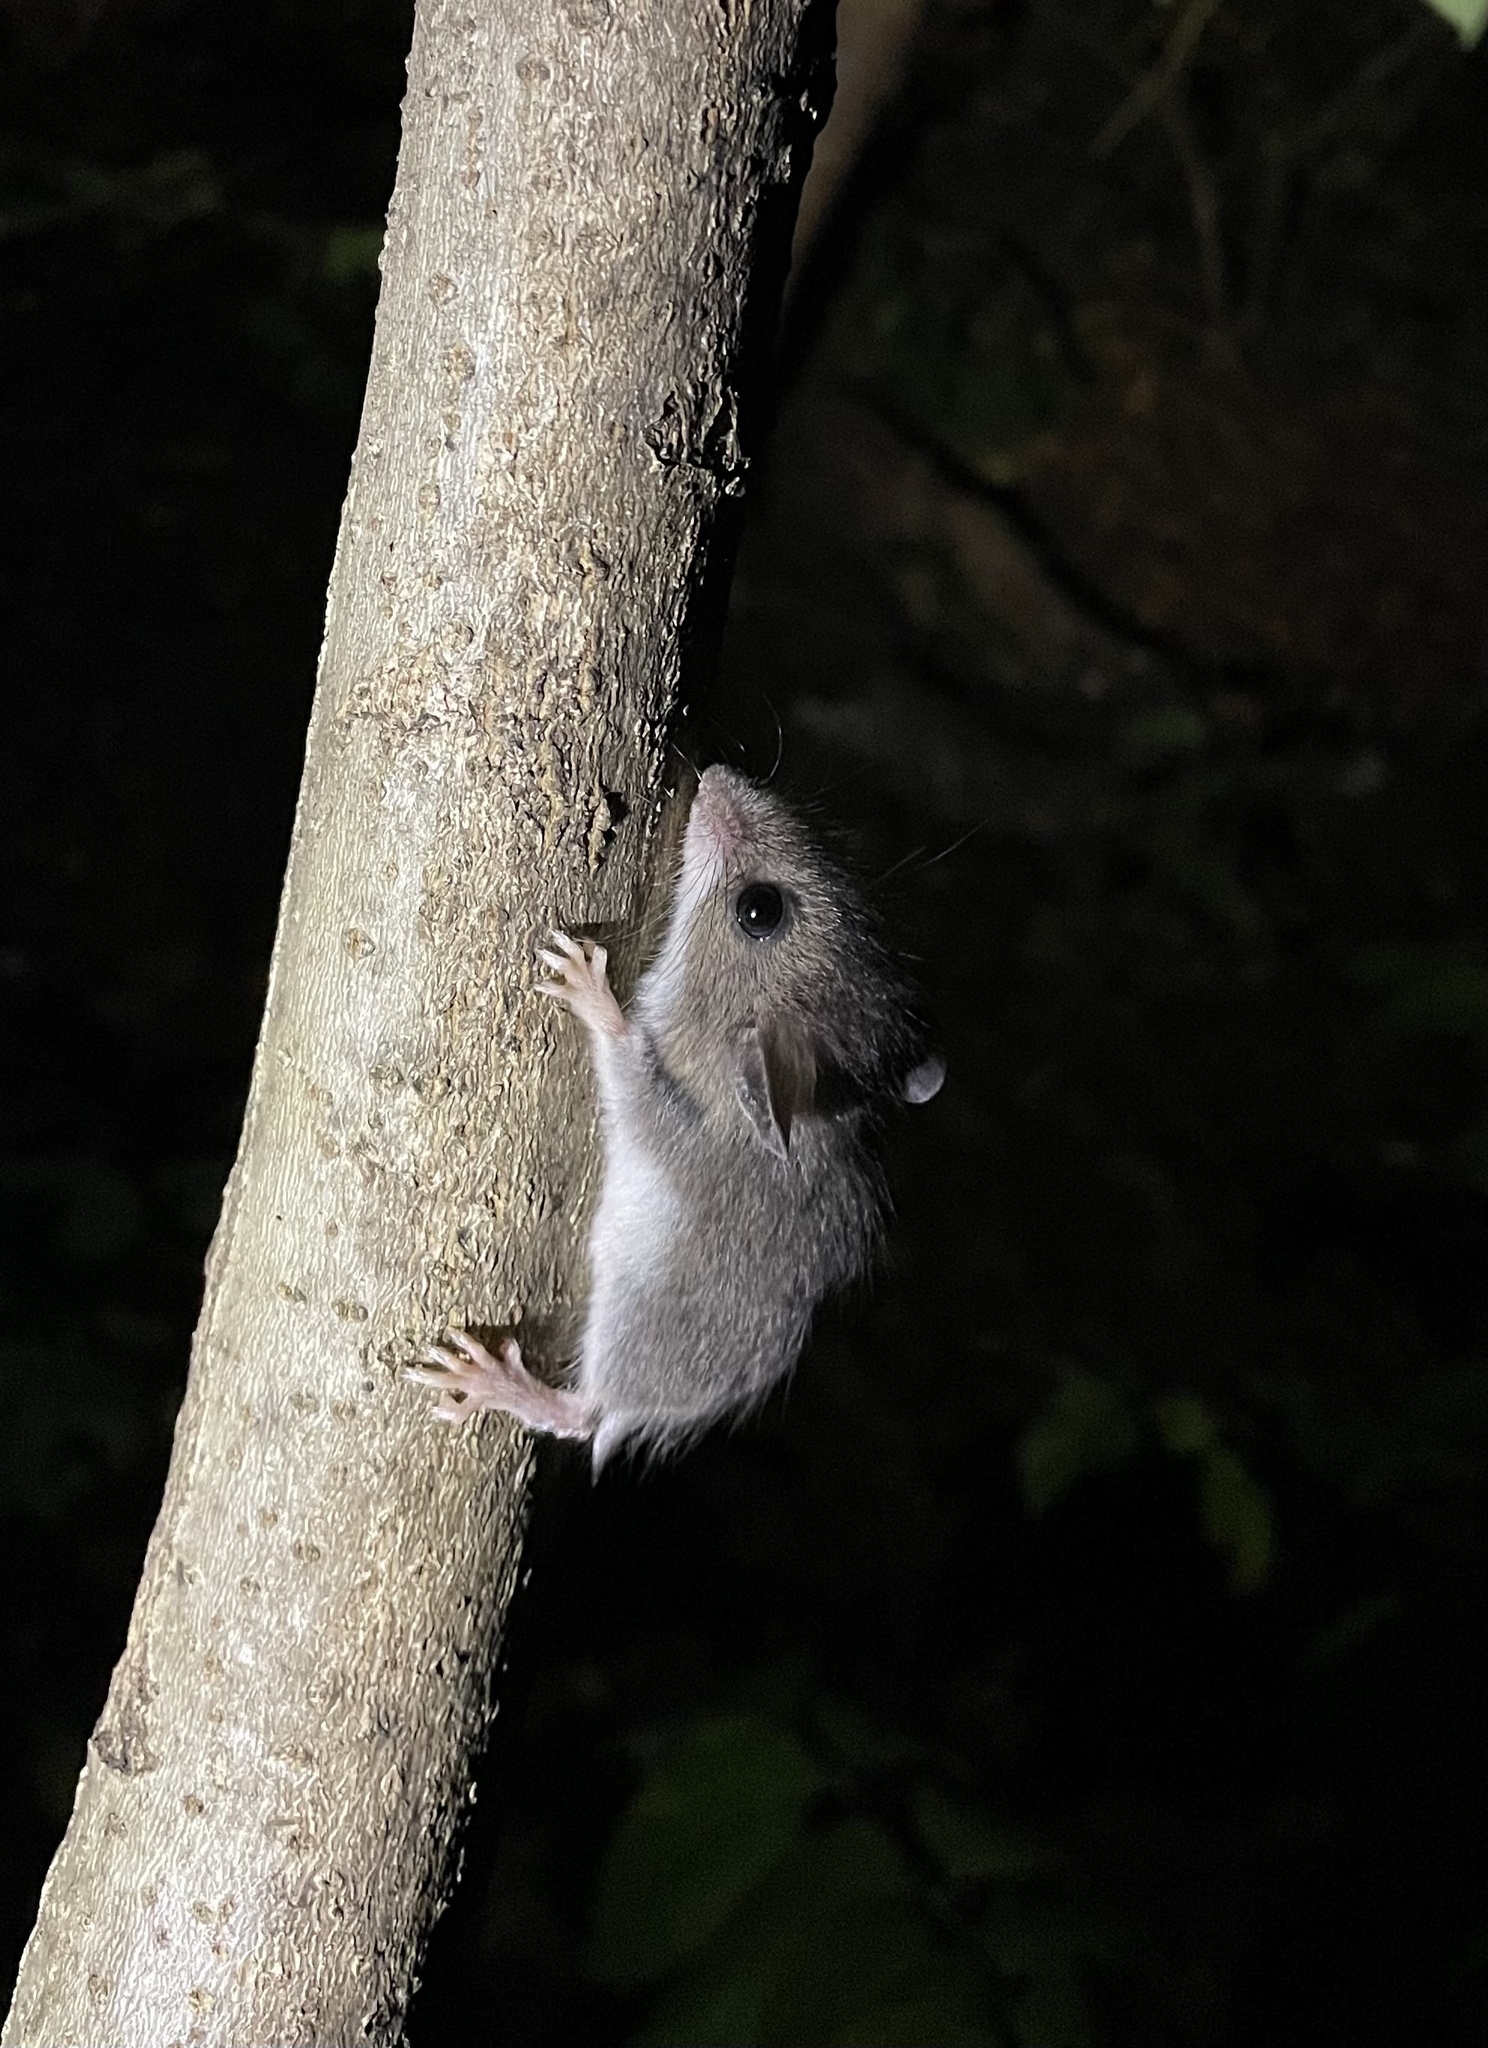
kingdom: Animalia
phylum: Chordata
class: Mammalia
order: Rodentia
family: Cricetidae
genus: Peromyscus
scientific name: Peromyscus leucopus
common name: White-footed deermouse
